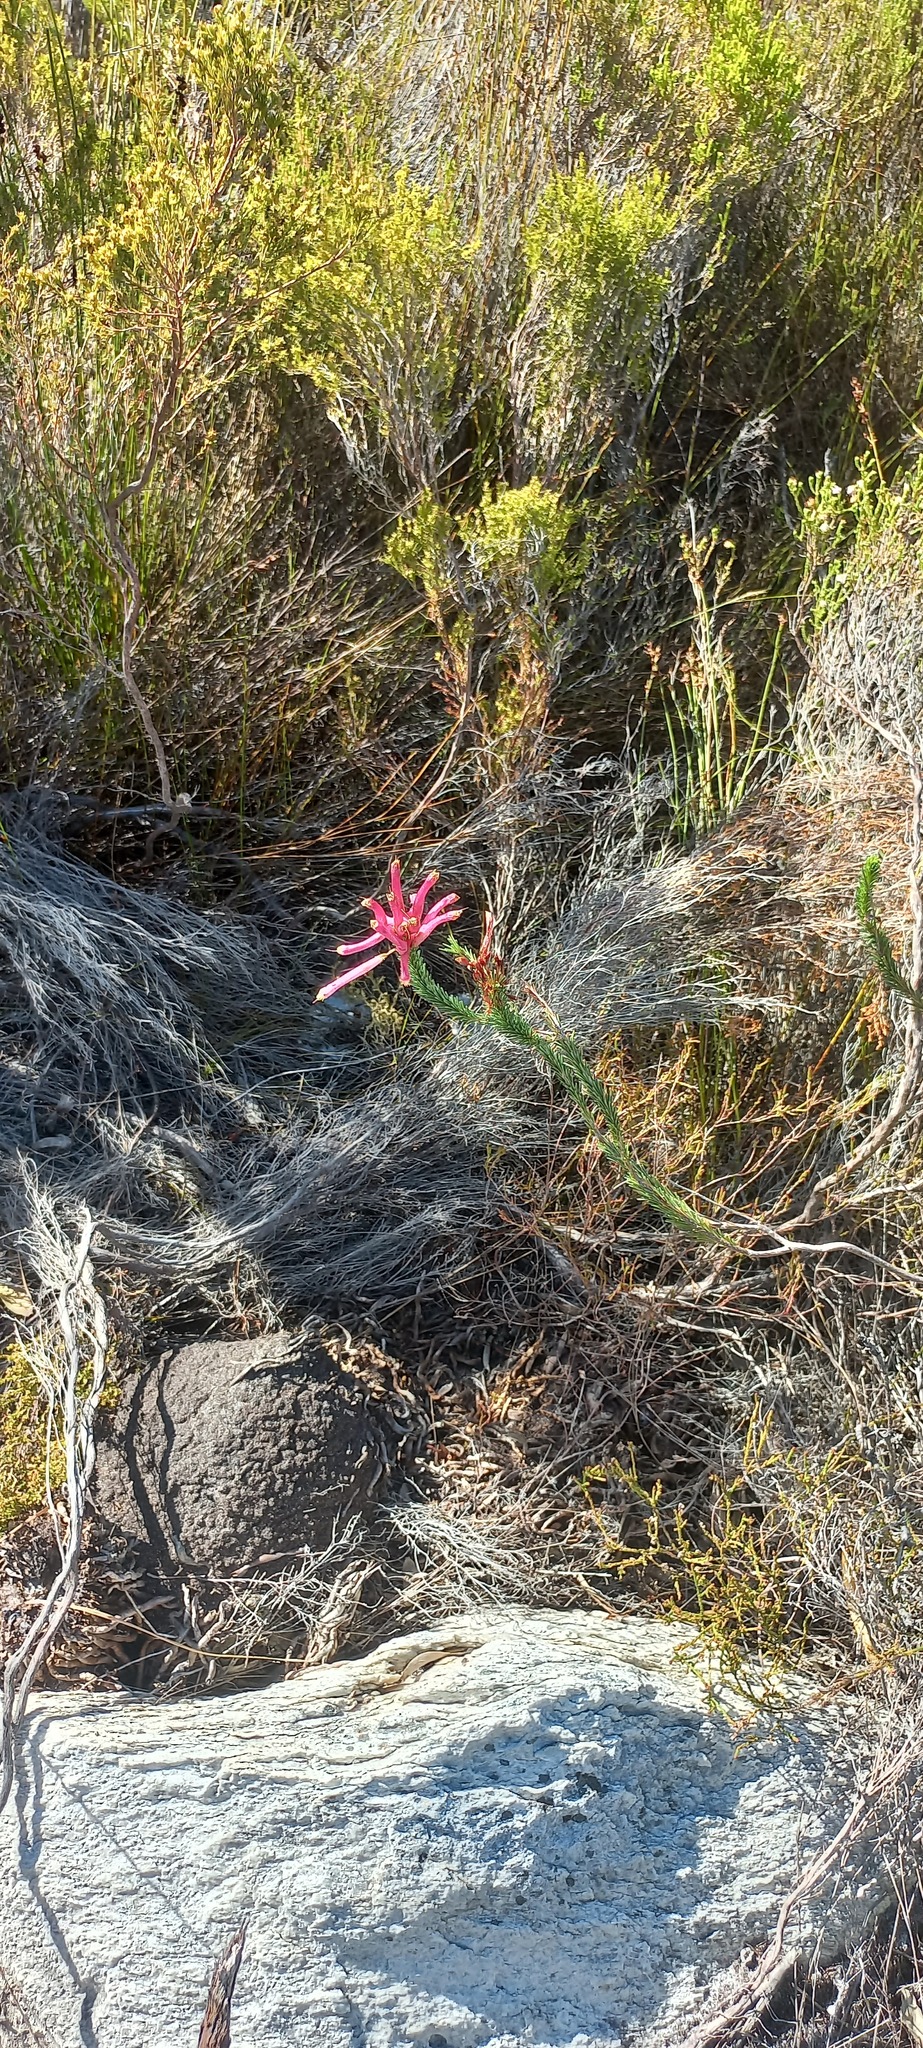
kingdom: Plantae
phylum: Tracheophyta
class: Magnoliopsida
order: Ericales
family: Ericaceae
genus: Erica
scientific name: Erica fascicularis
